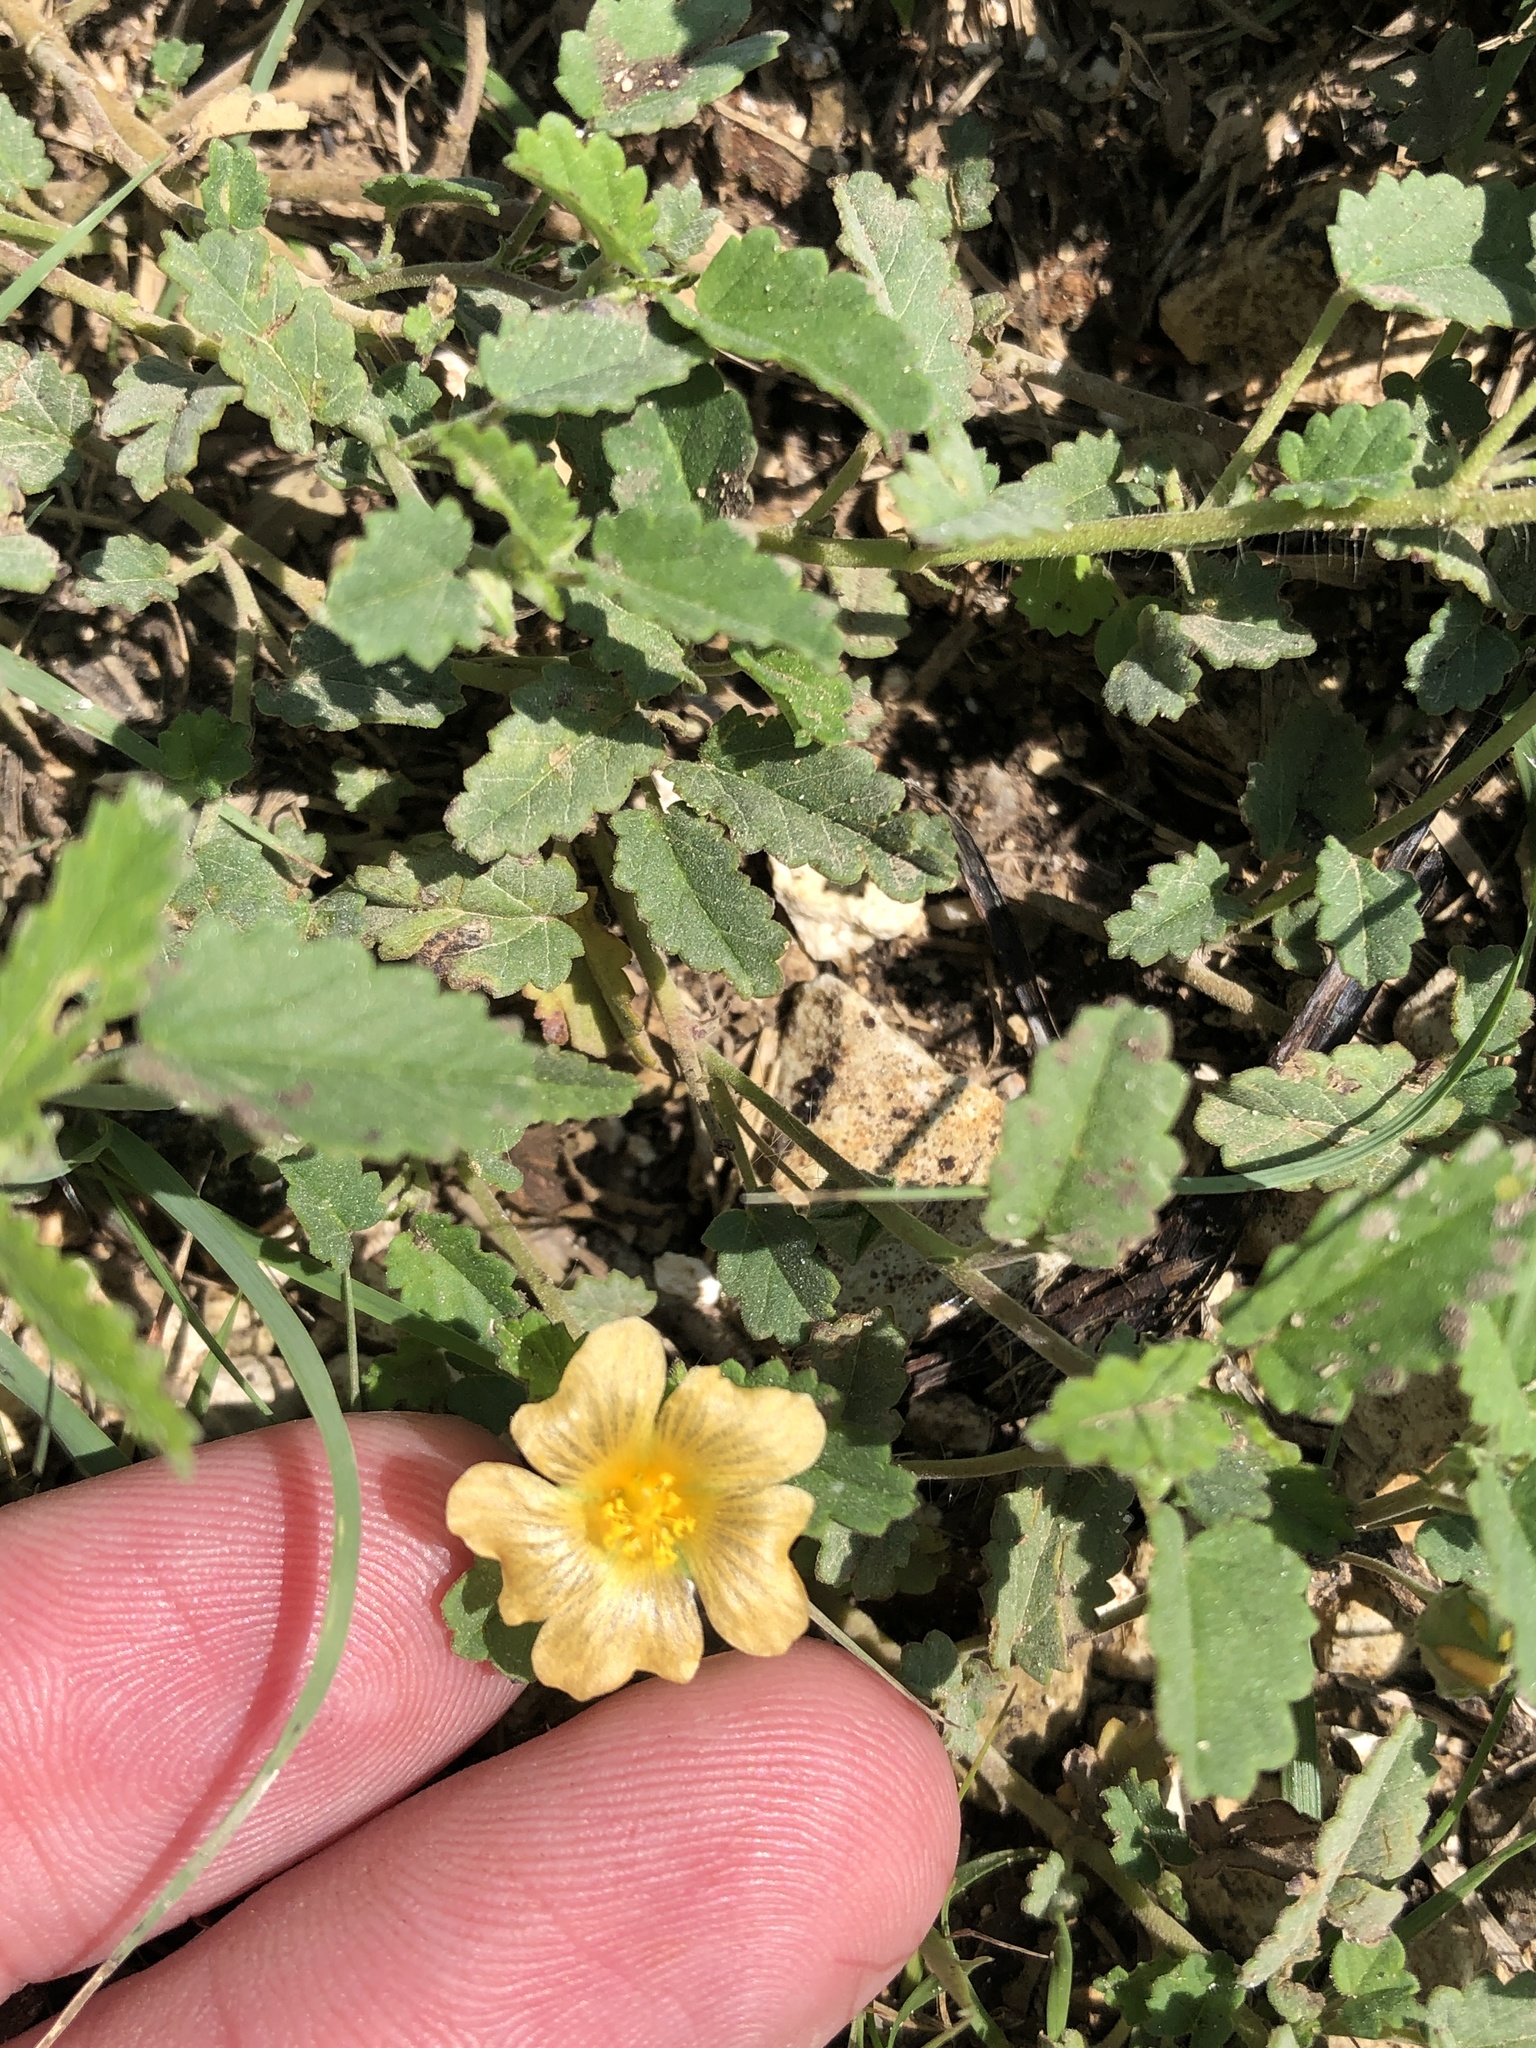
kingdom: Plantae
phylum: Tracheophyta
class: Magnoliopsida
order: Malvales
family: Malvaceae
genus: Sida
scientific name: Sida abutilifolia
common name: Spreading fanpetals
